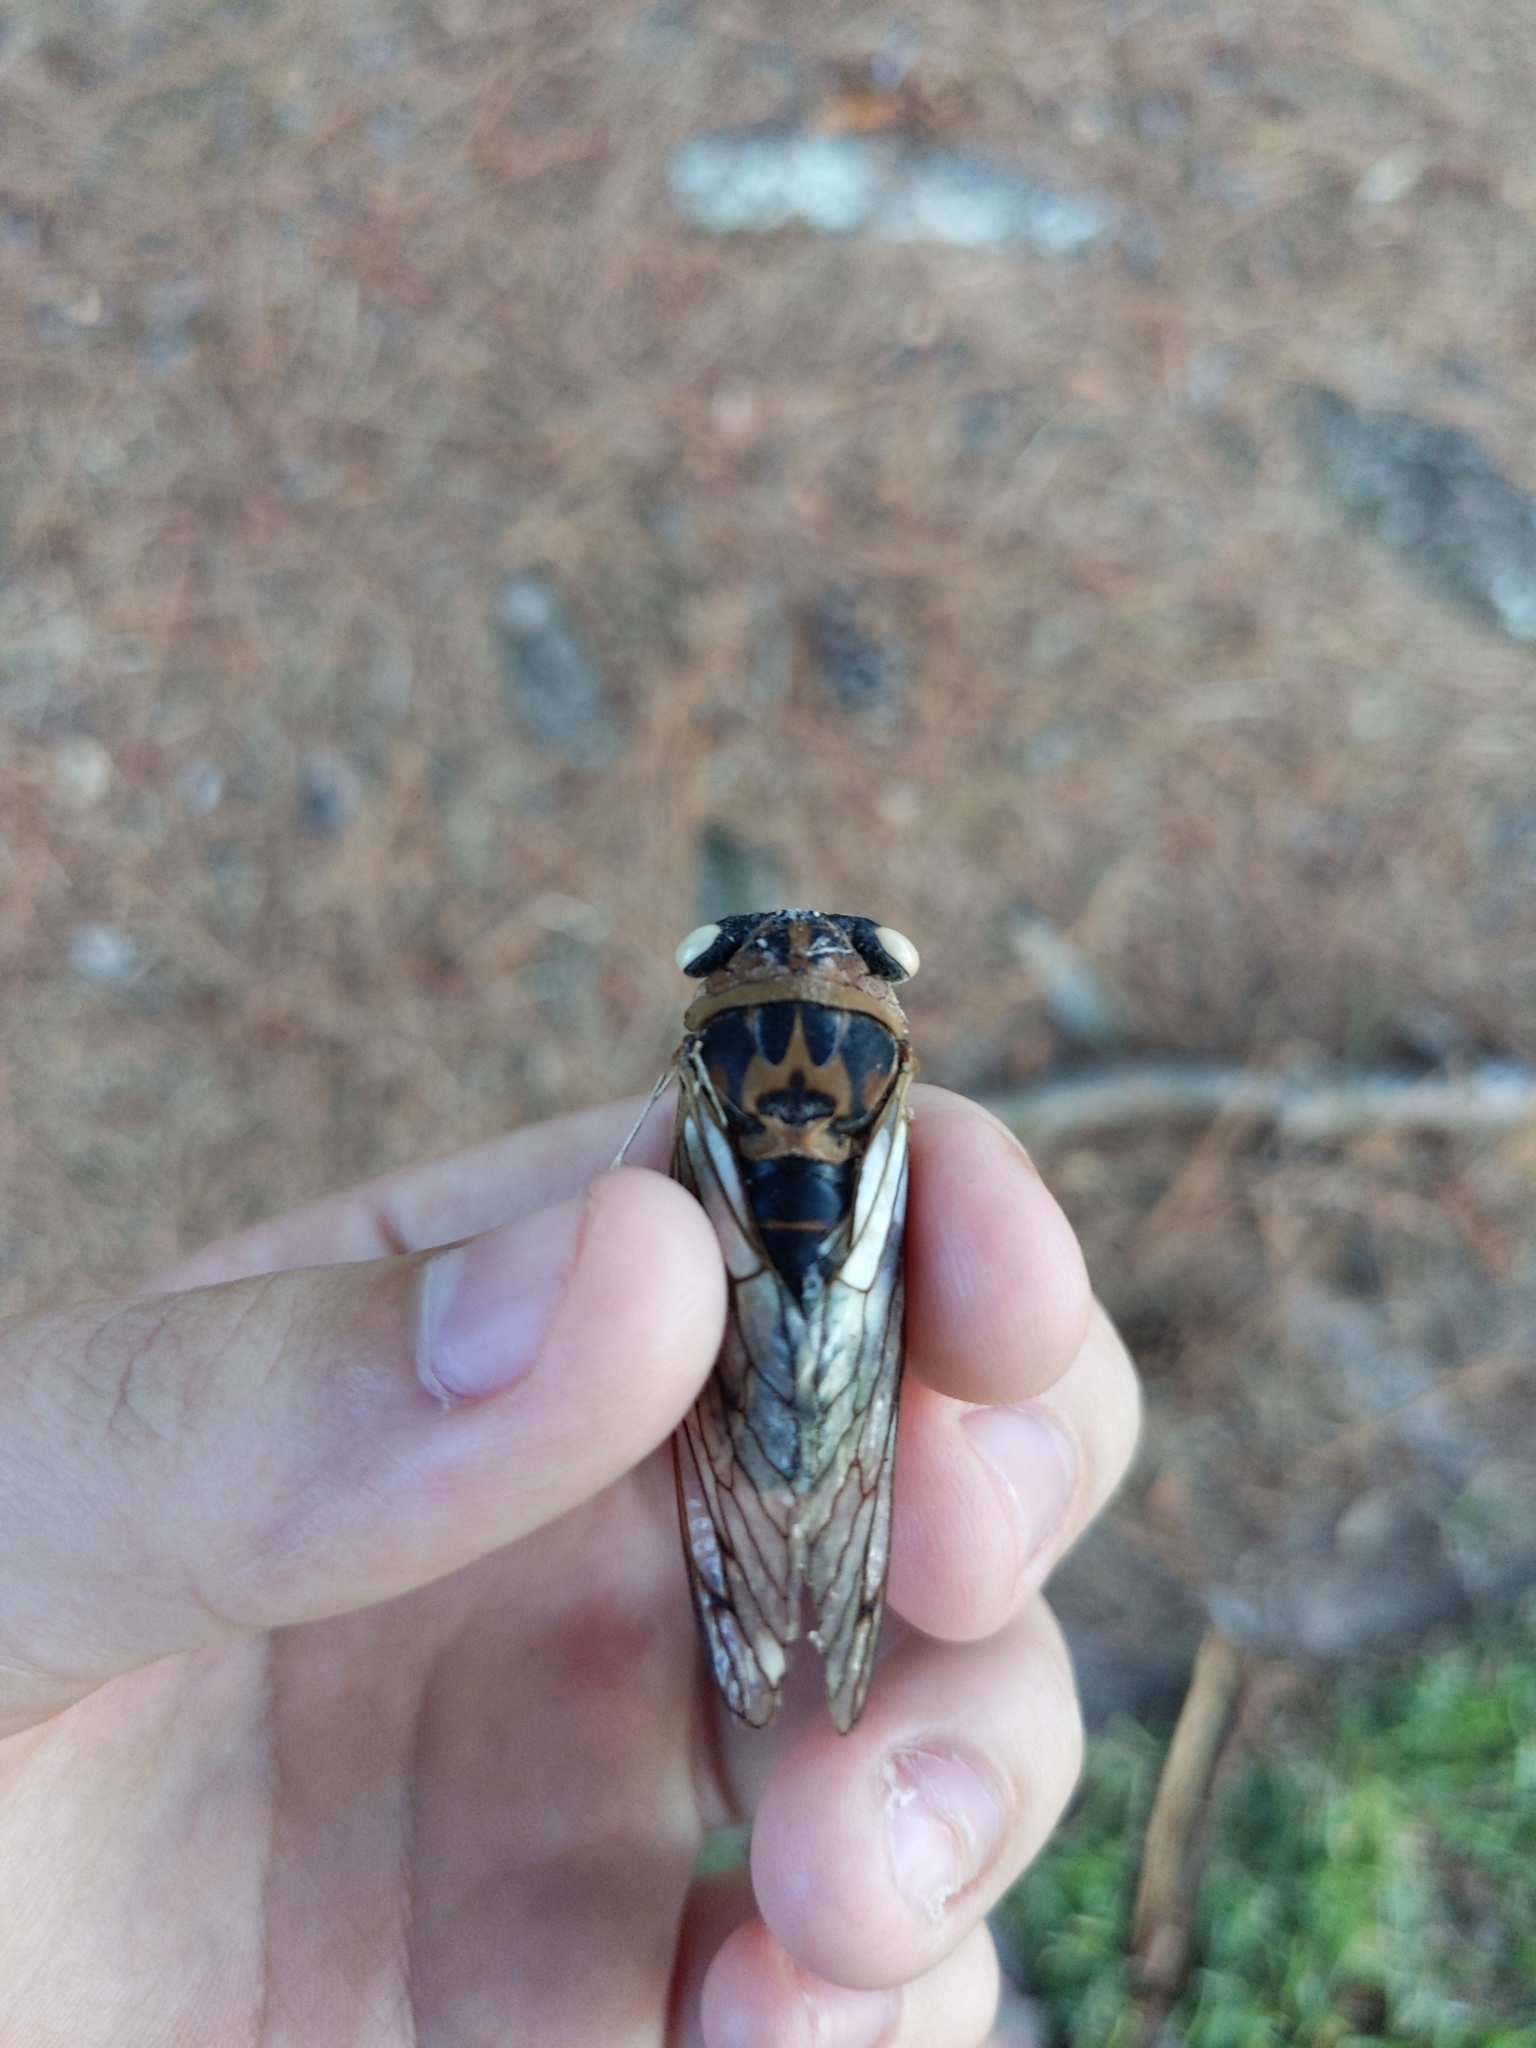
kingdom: Animalia
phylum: Arthropoda
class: Insecta
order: Hemiptera
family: Cicadidae
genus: Neotibicen
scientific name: Neotibicen davisi
